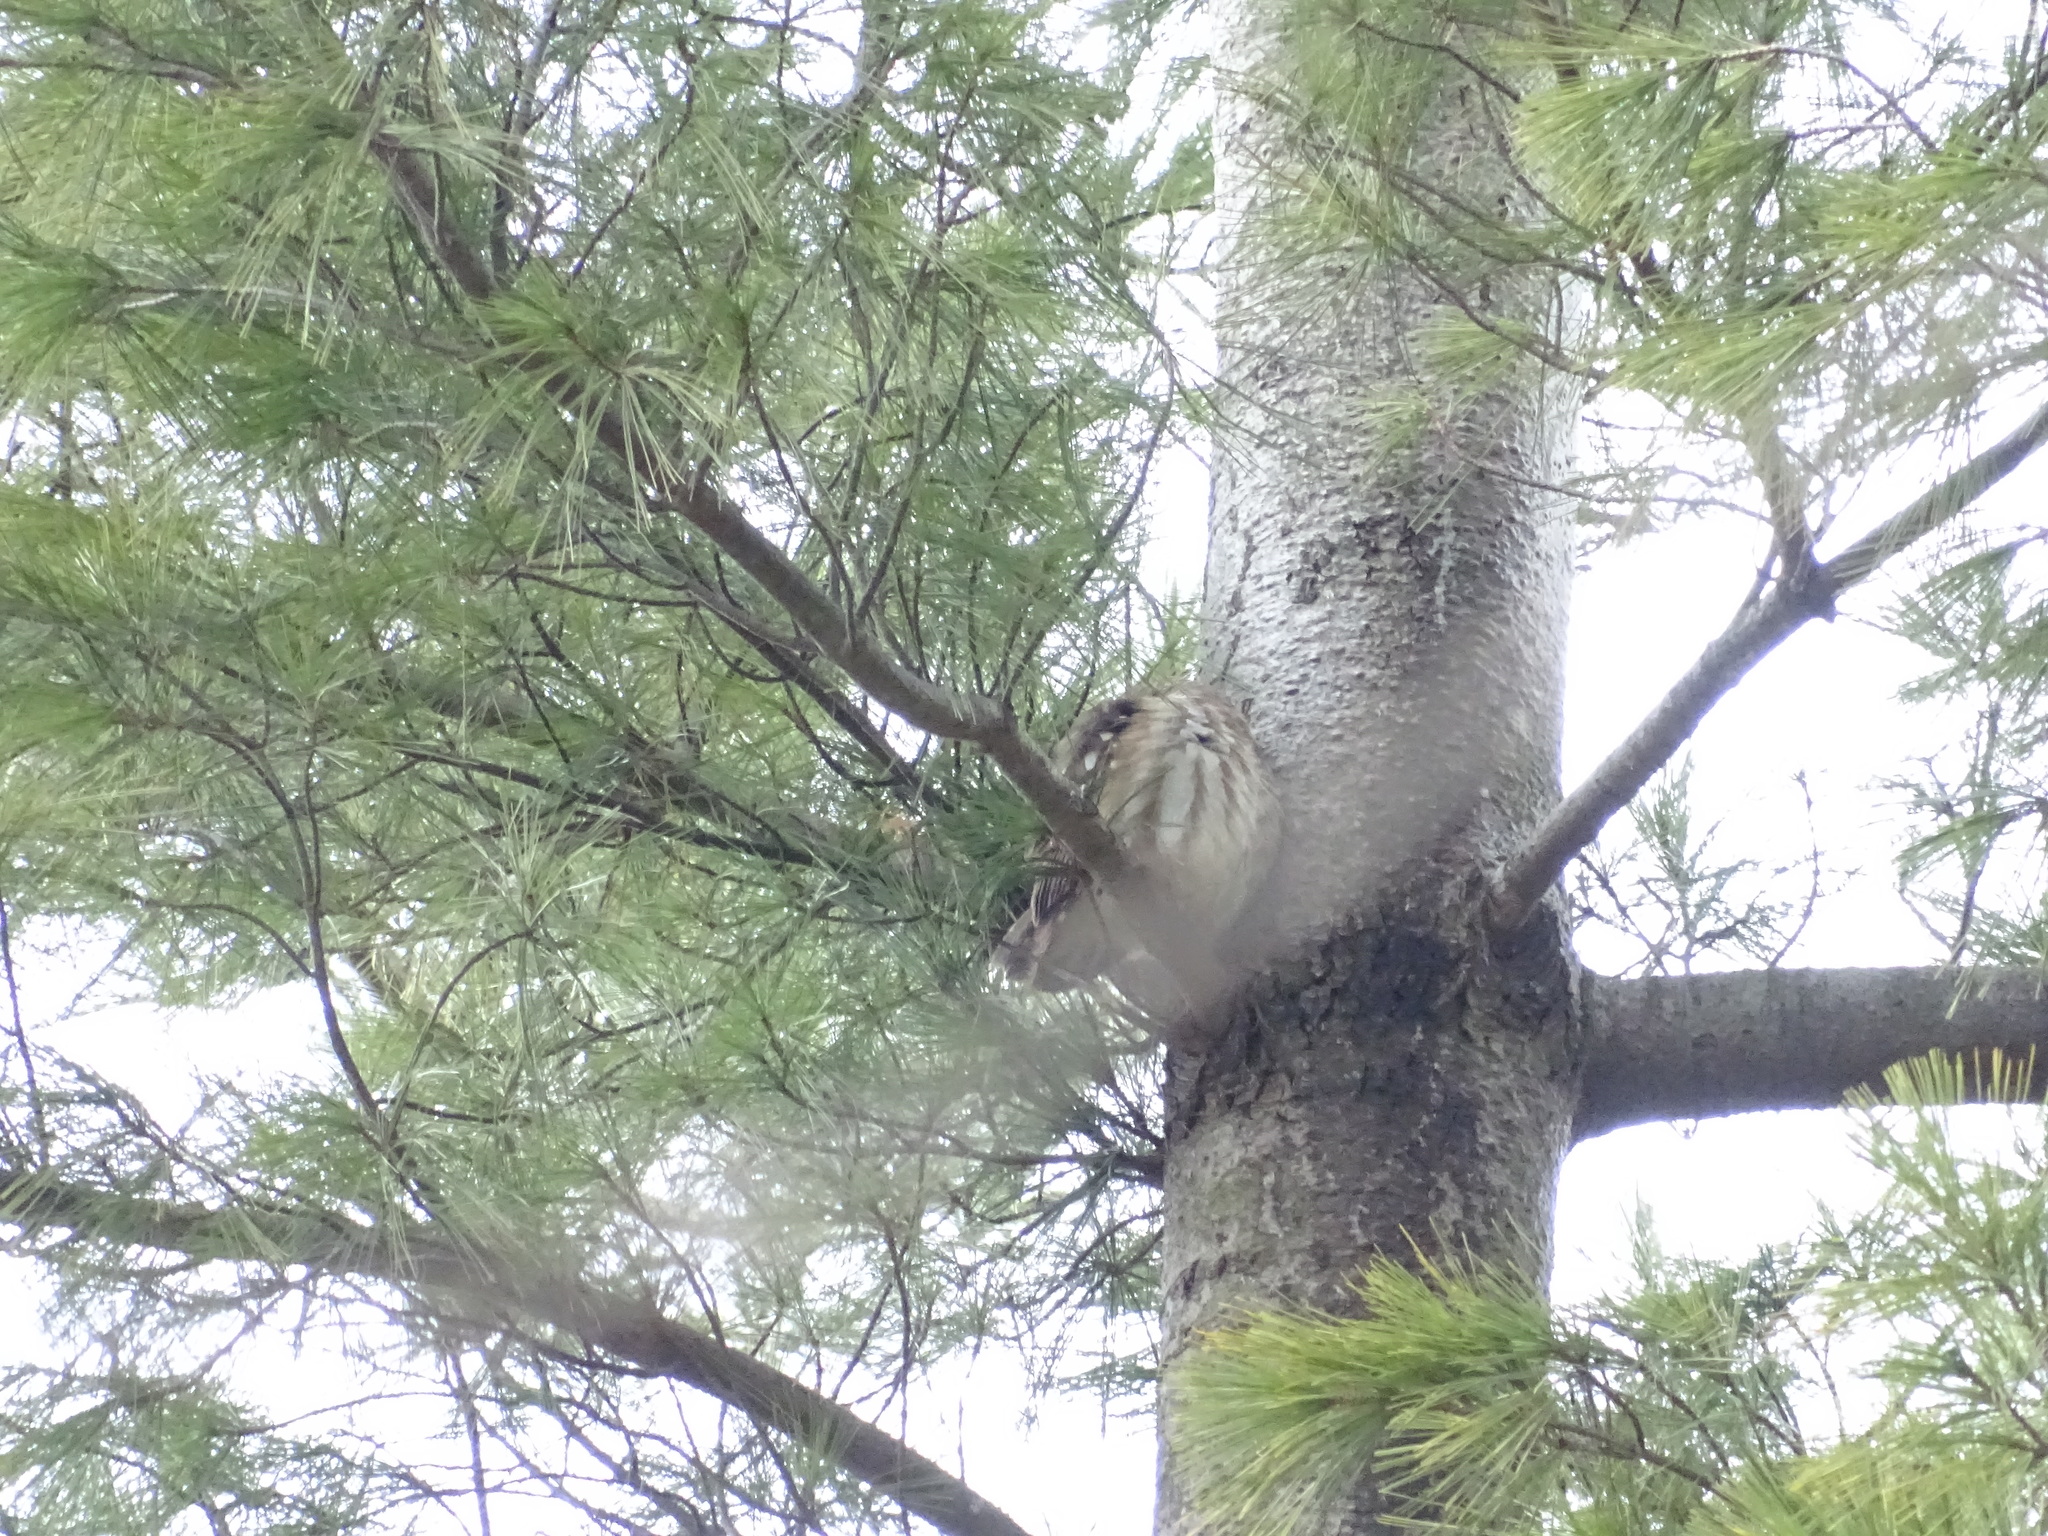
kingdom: Animalia
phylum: Chordata
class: Aves
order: Strigiformes
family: Strigidae
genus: Aegolius
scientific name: Aegolius acadicus
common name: Northern saw-whet owl
